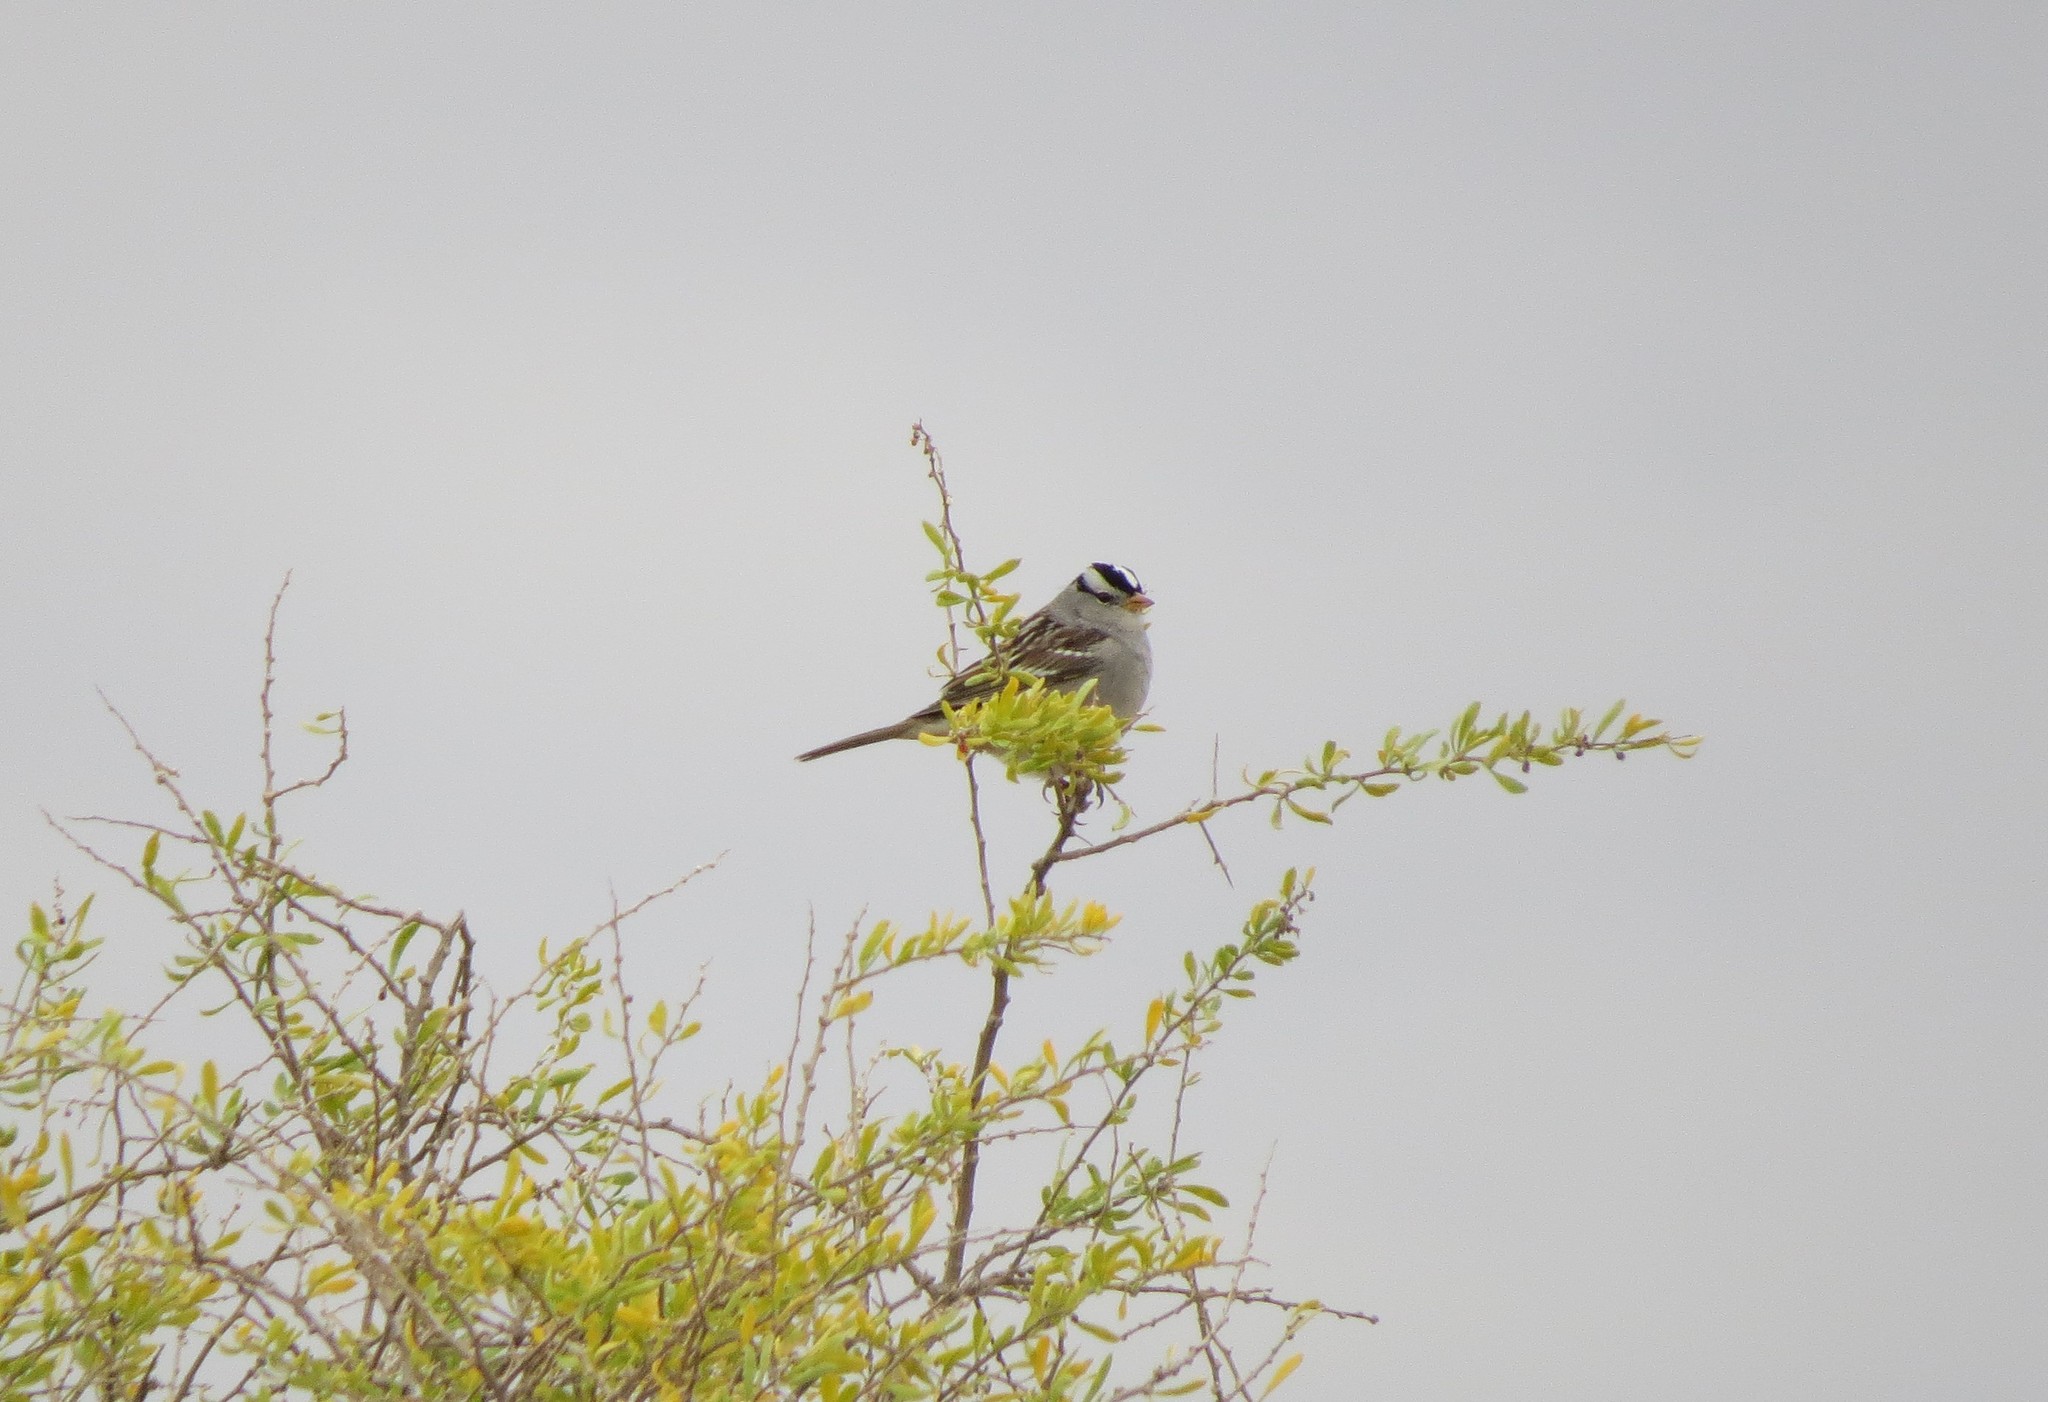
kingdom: Animalia
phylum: Chordata
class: Aves
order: Passeriformes
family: Passerellidae
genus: Zonotrichia
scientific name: Zonotrichia leucophrys
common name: White-crowned sparrow
